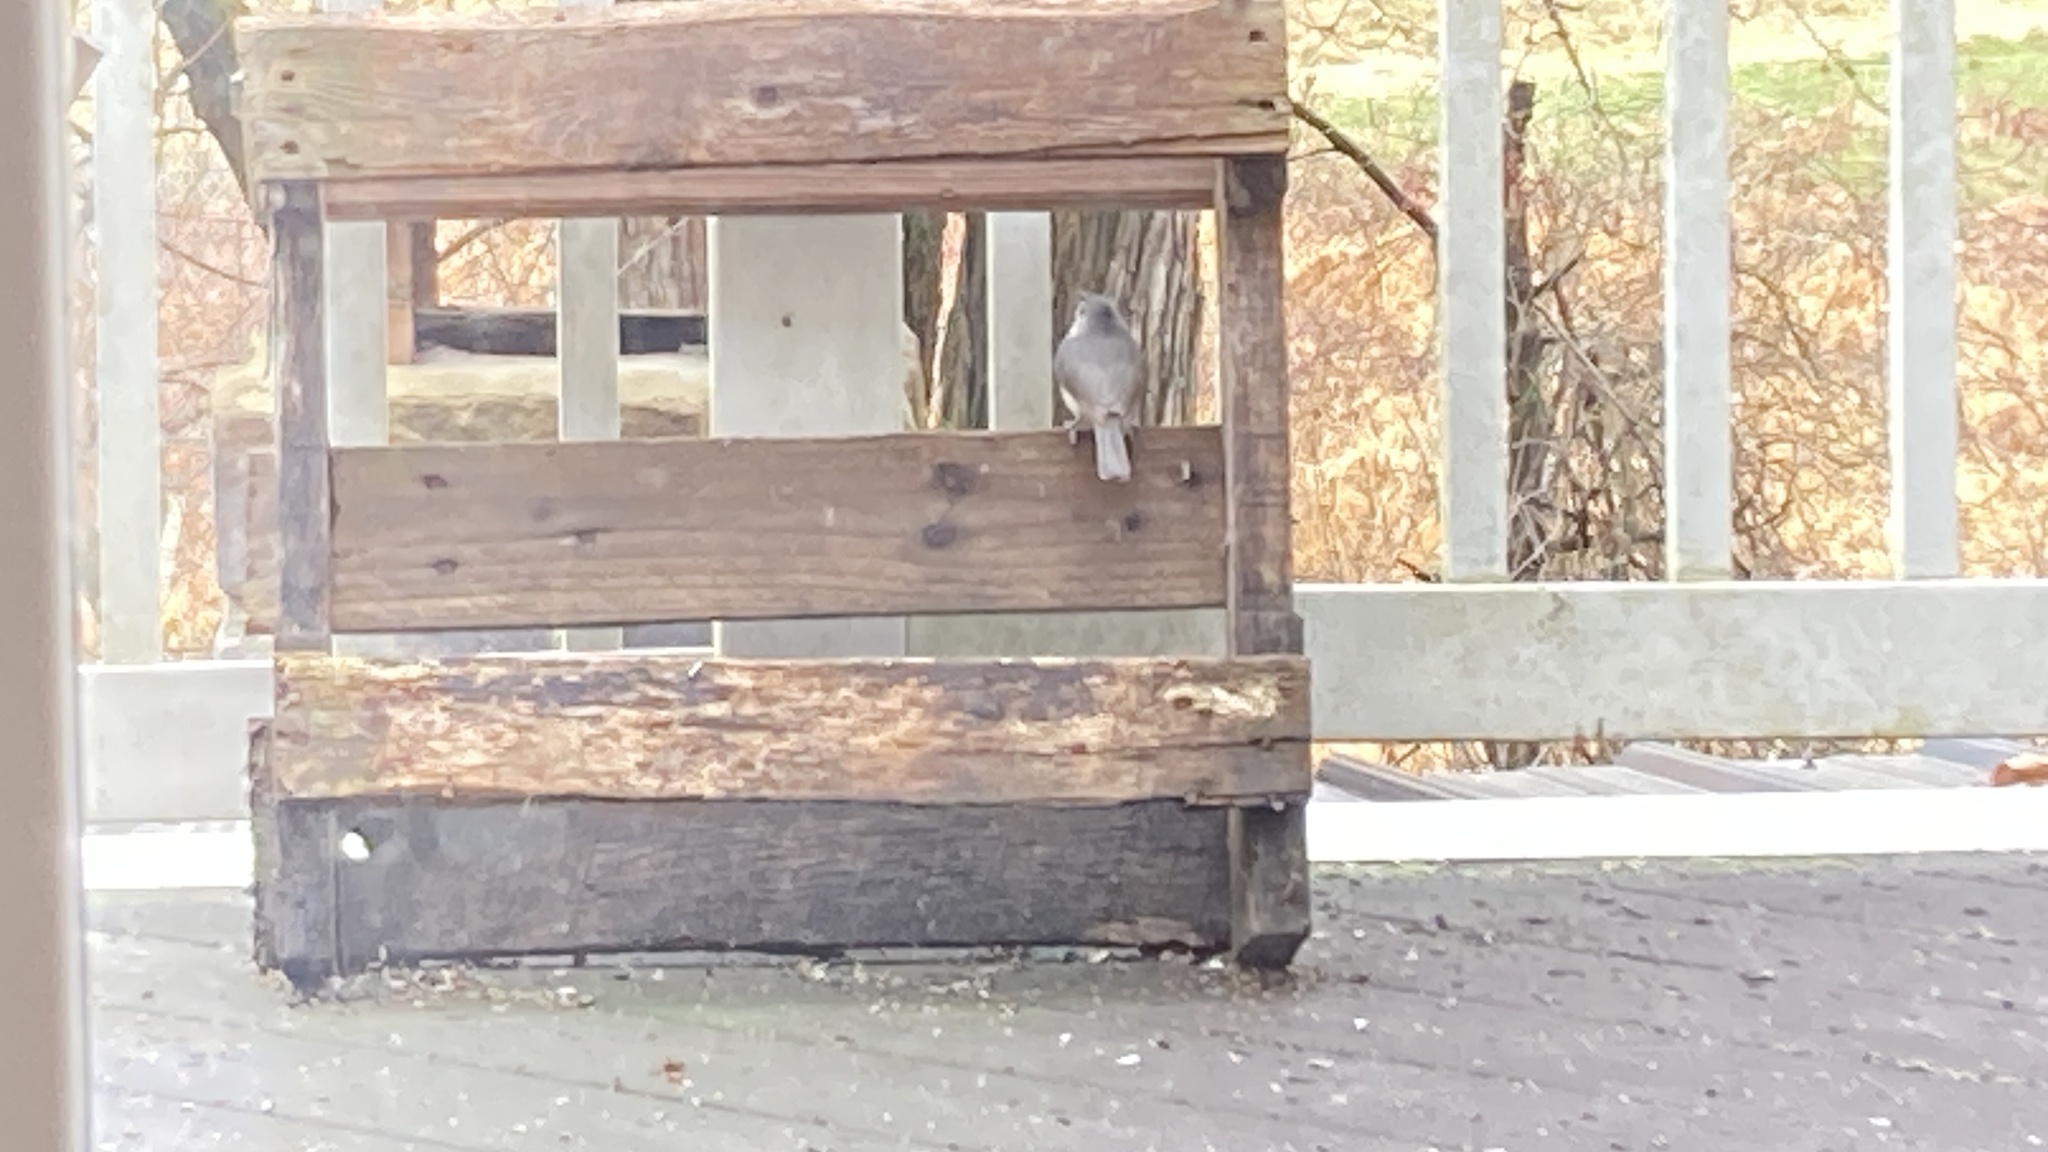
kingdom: Animalia
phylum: Chordata
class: Aves
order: Passeriformes
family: Paridae
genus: Baeolophus
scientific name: Baeolophus bicolor
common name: Tufted titmouse
